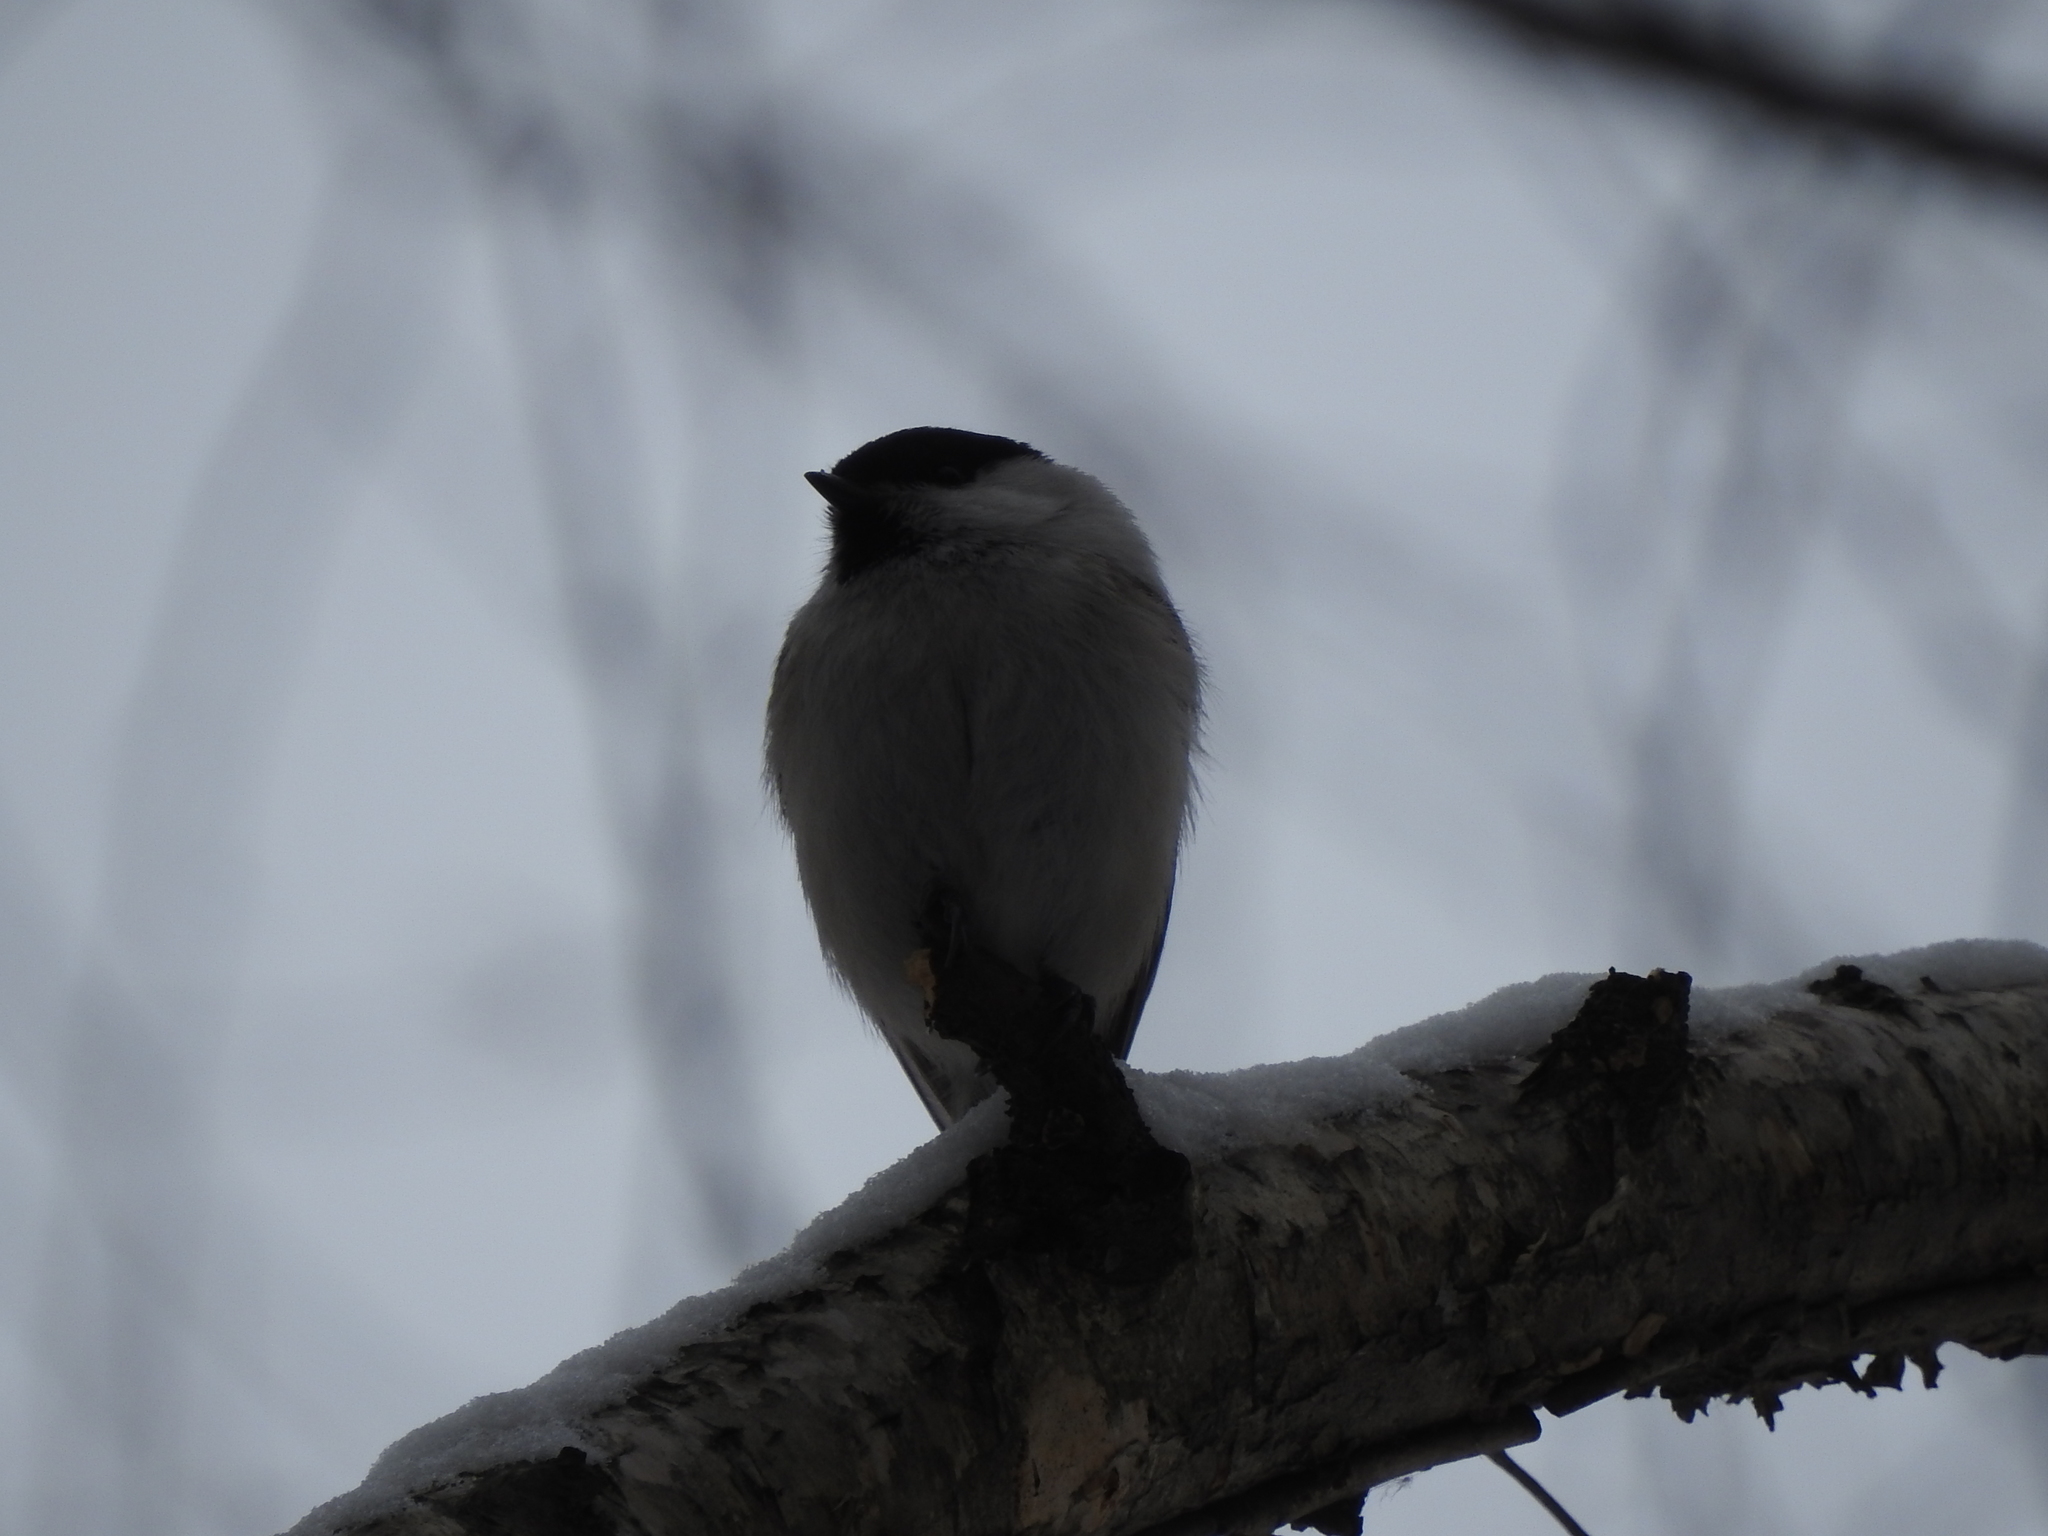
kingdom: Animalia
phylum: Chordata
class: Aves
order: Passeriformes
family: Paridae
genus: Poecile
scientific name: Poecile montanus
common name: Willow tit
